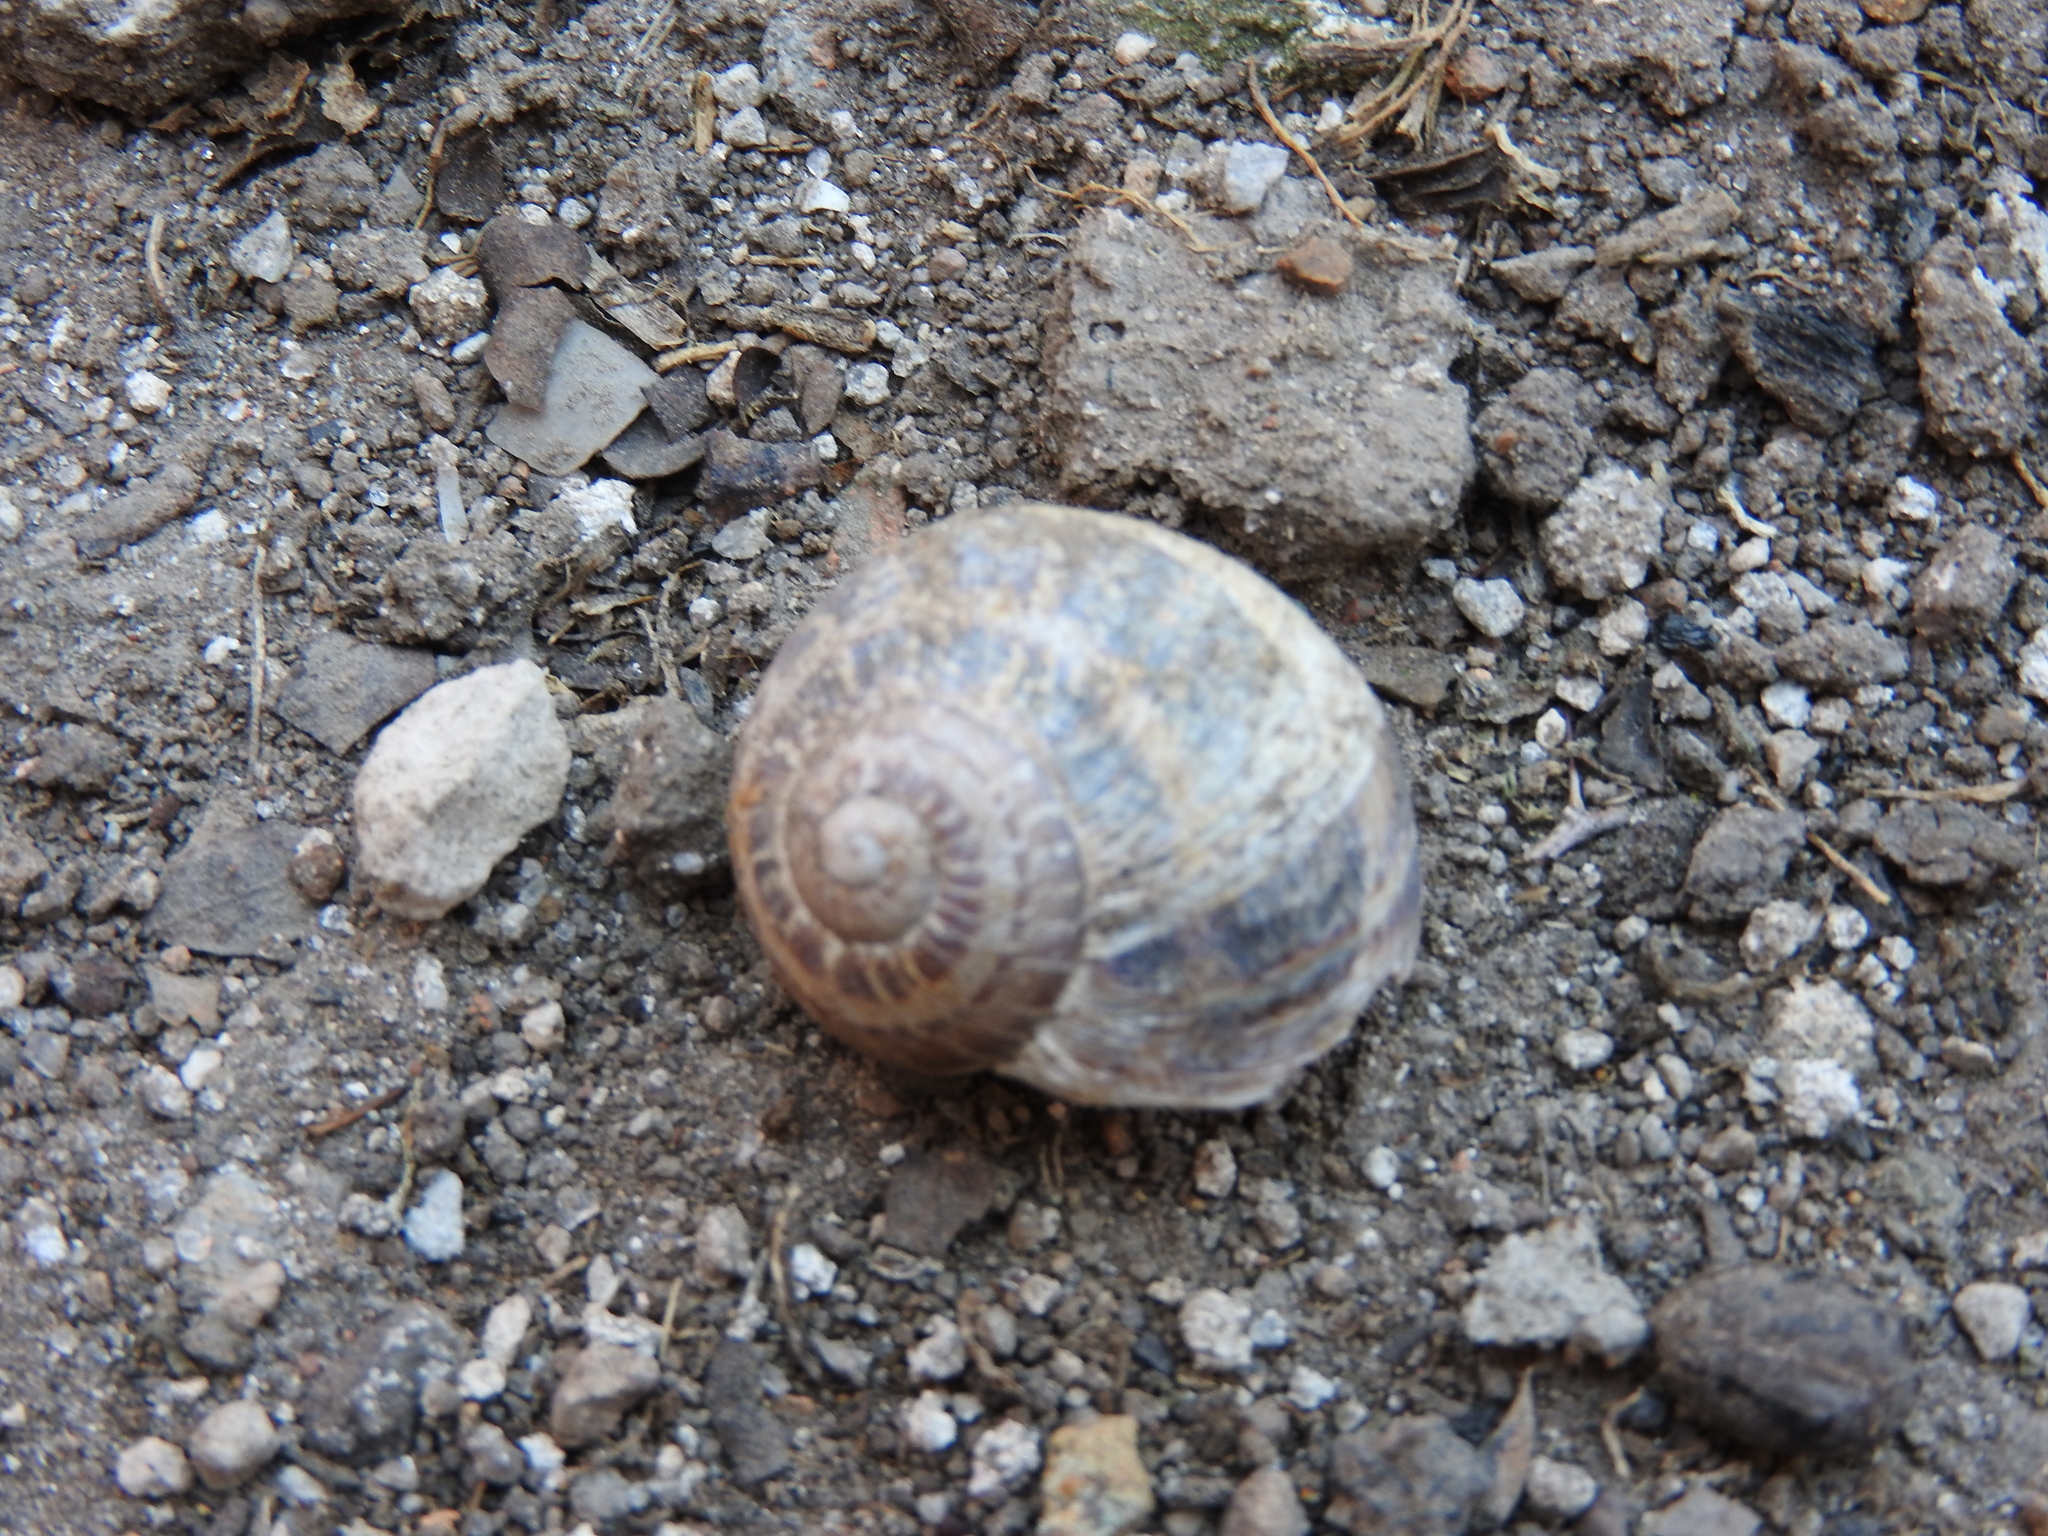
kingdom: Animalia
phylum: Mollusca
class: Gastropoda
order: Stylommatophora
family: Helicidae
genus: Cornu
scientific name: Cornu aspersum
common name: Brown garden snail
